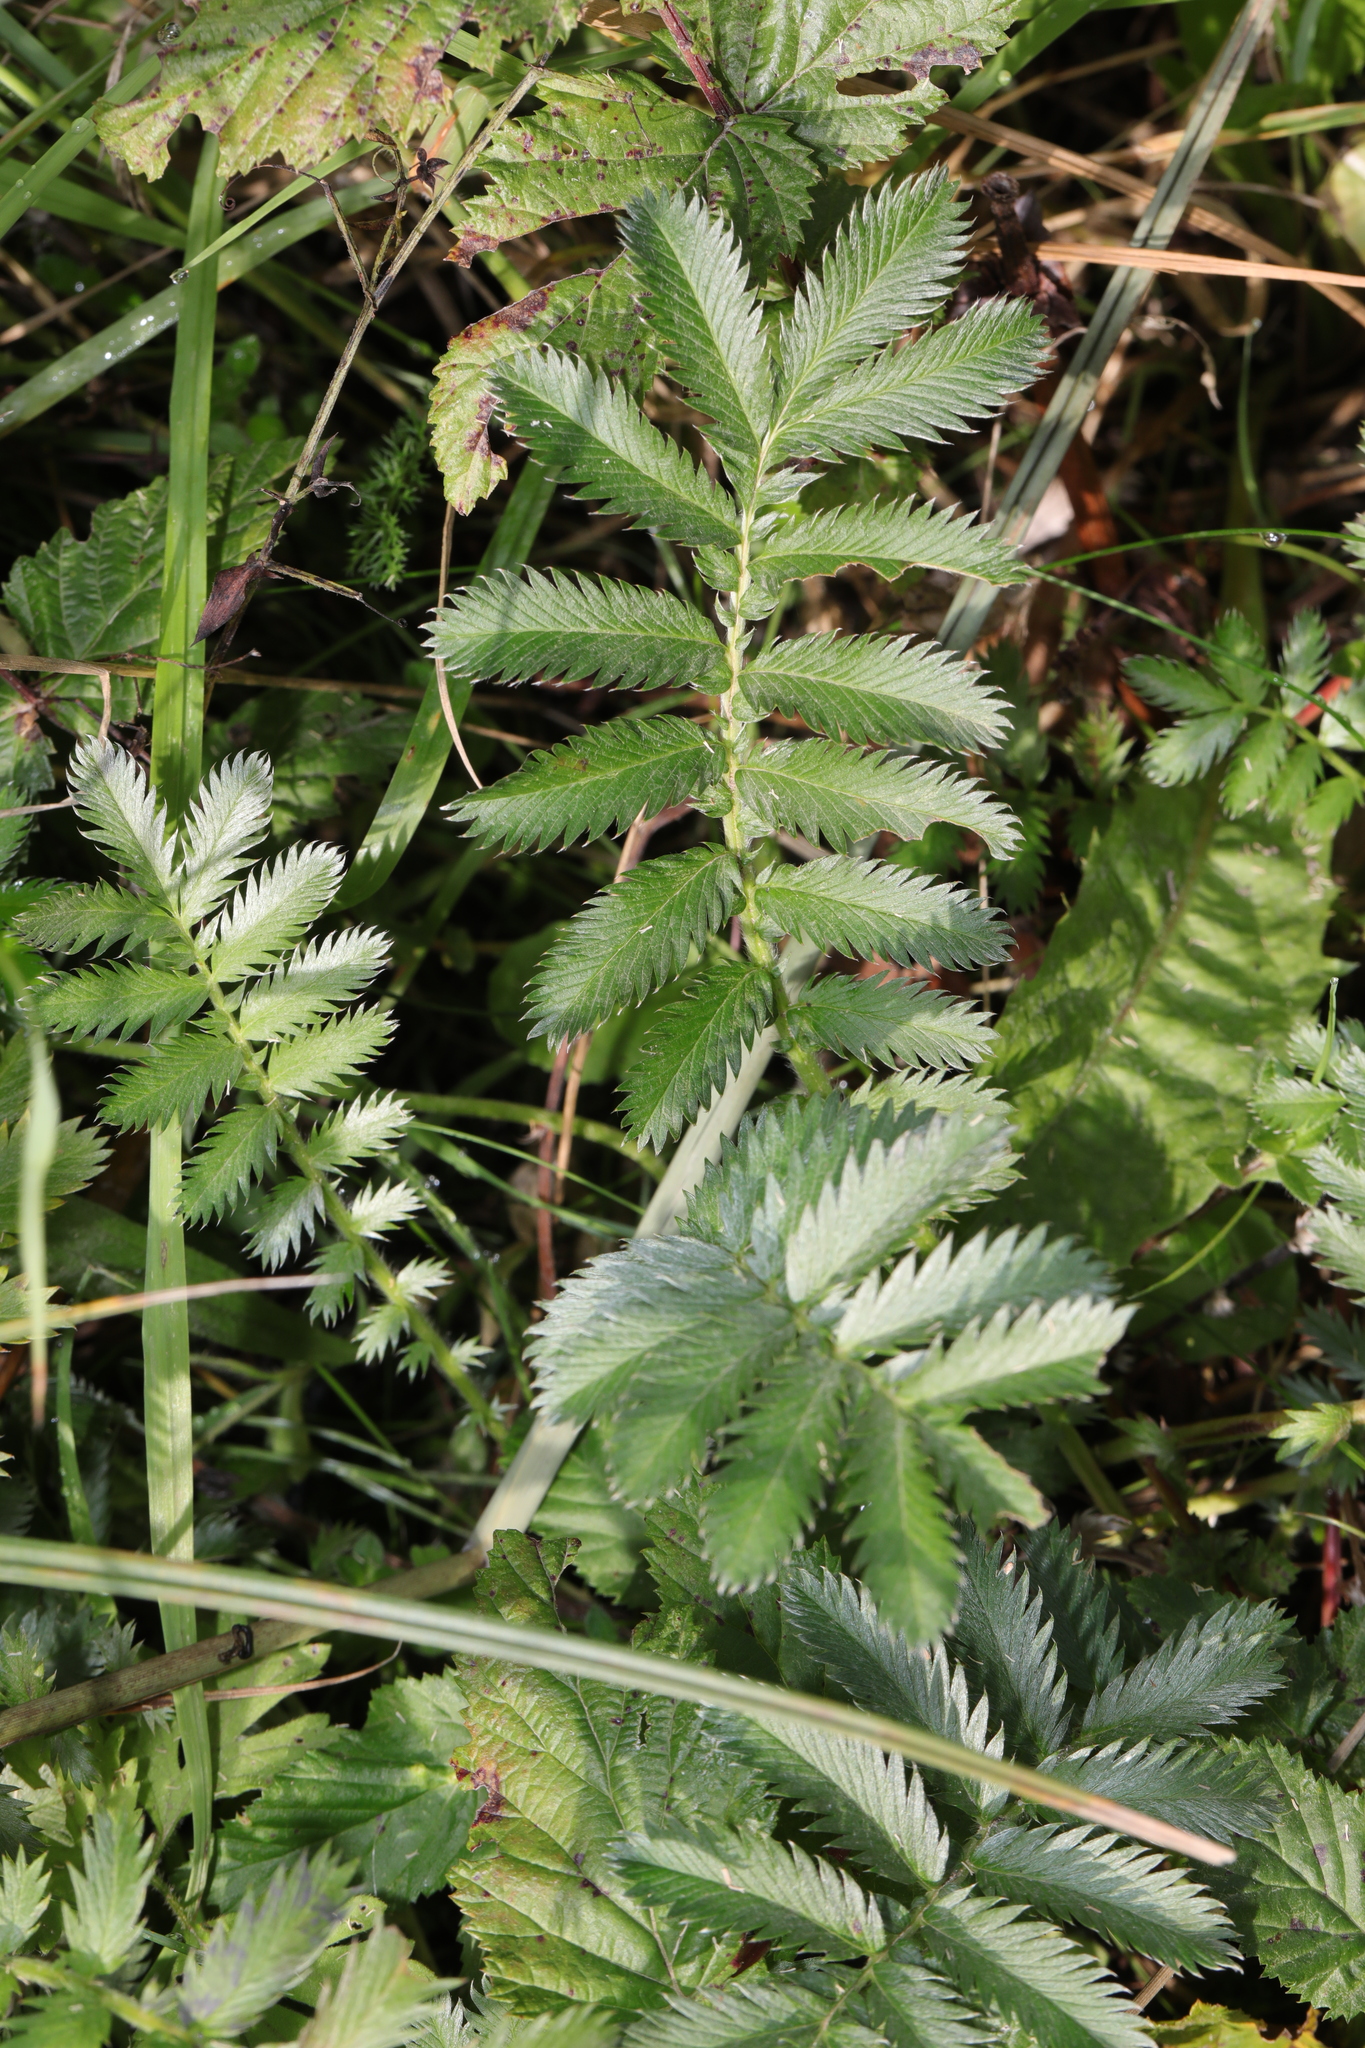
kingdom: Plantae
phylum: Tracheophyta
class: Magnoliopsida
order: Rosales
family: Rosaceae
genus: Argentina
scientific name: Argentina anserina
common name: Common silverweed
